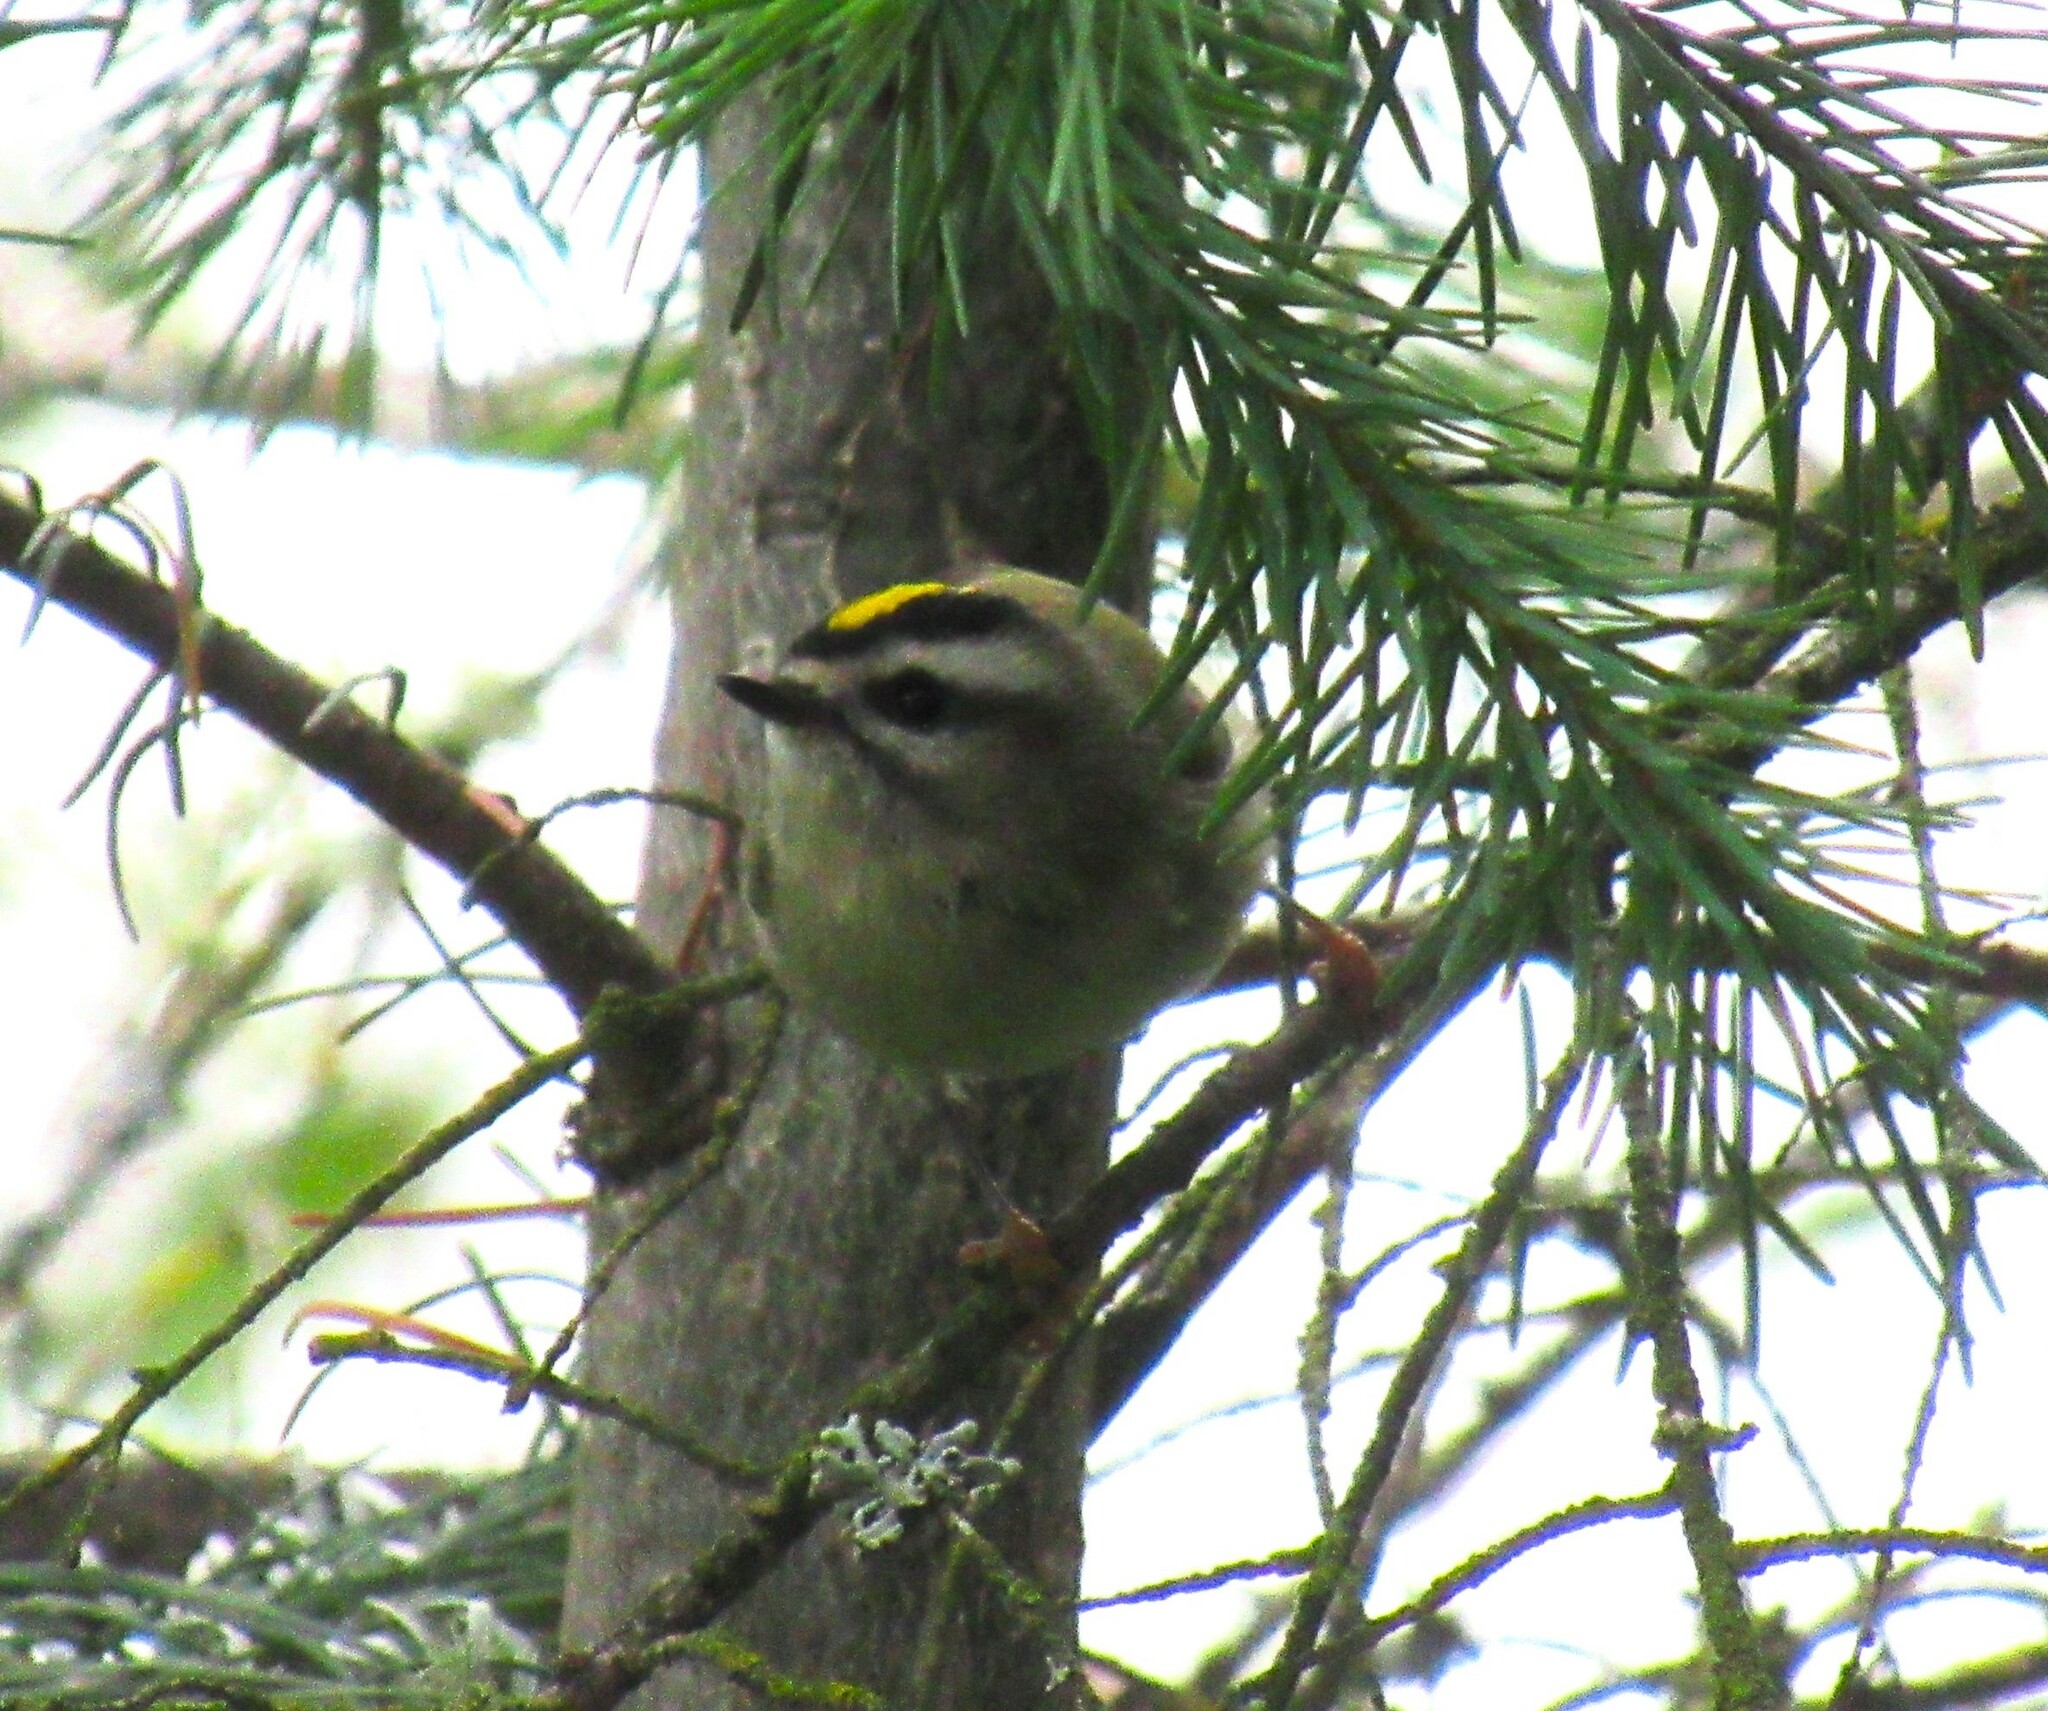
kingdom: Animalia
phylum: Chordata
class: Aves
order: Passeriformes
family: Regulidae
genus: Regulus
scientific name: Regulus satrapa
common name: Golden-crowned kinglet
